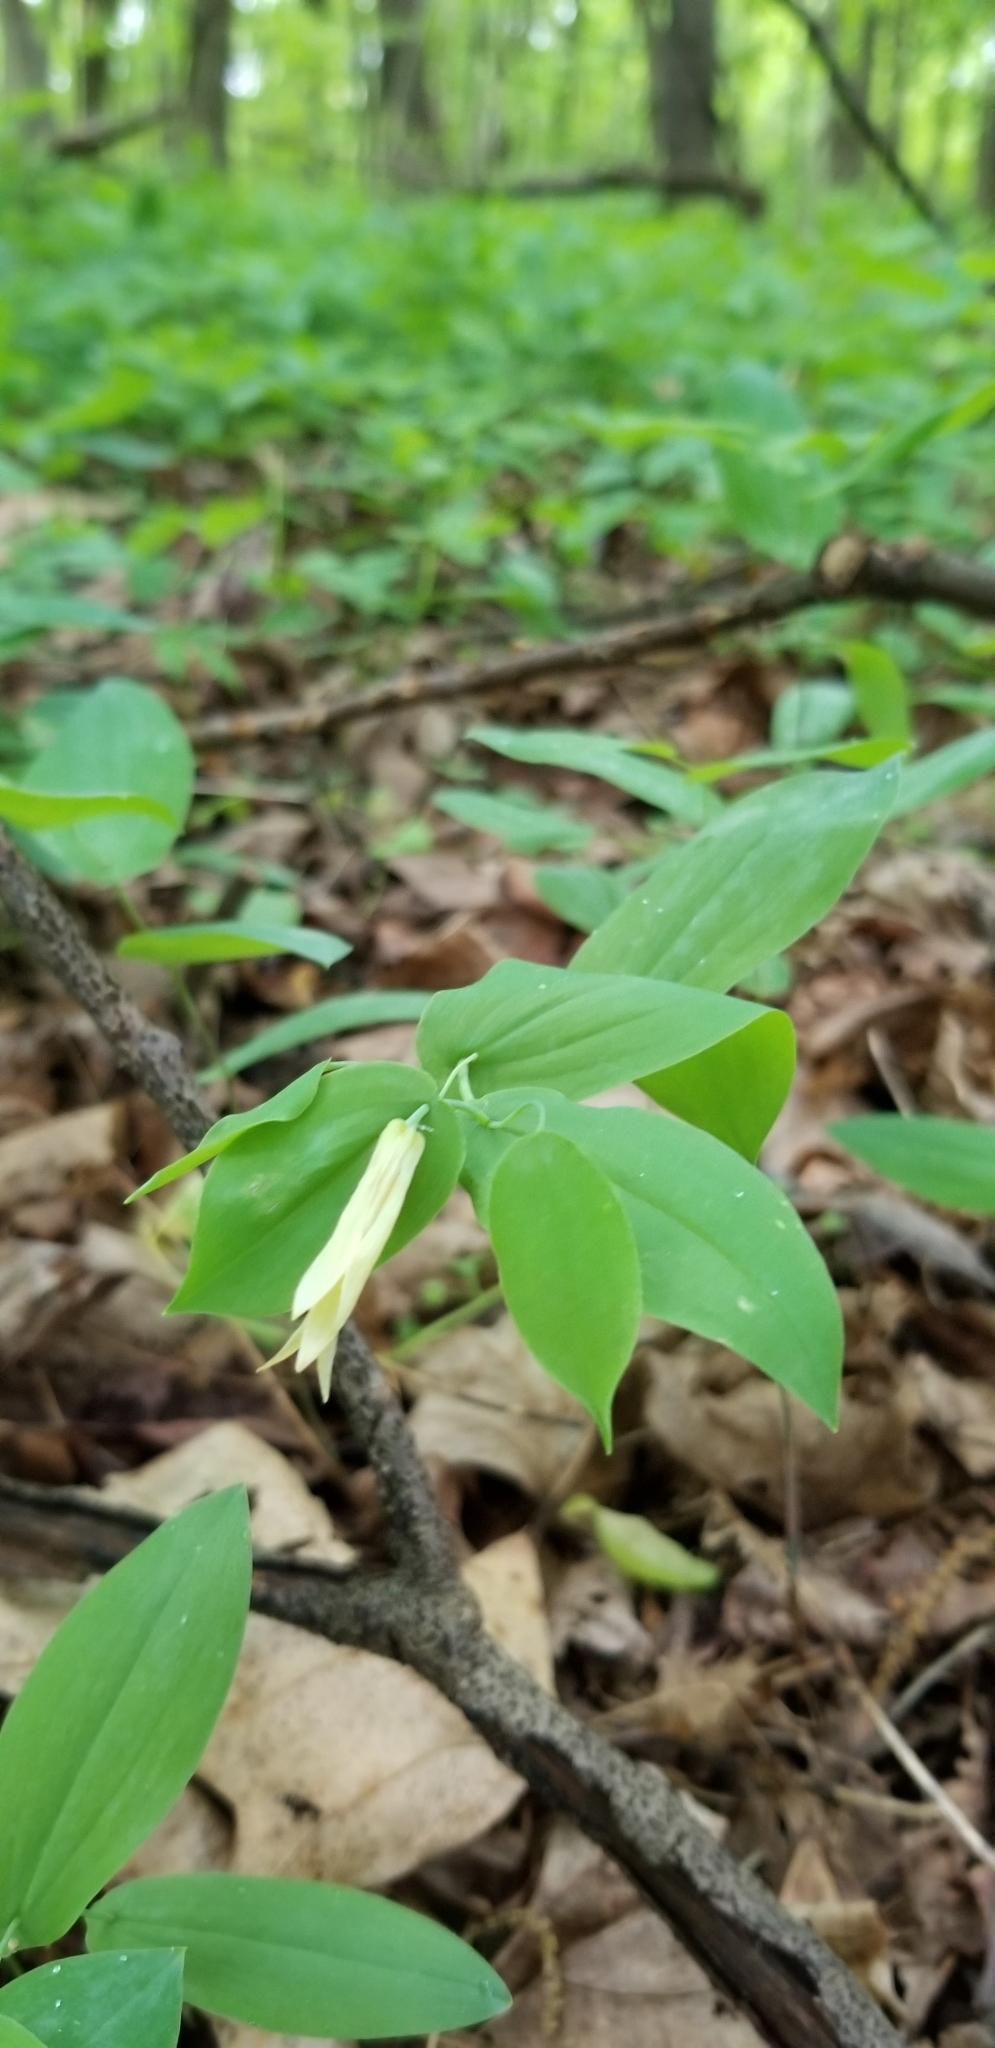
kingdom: Plantae
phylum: Tracheophyta
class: Liliopsida
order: Liliales
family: Colchicaceae
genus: Uvularia
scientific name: Uvularia perfoliata
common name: Perfoliate bellwort
